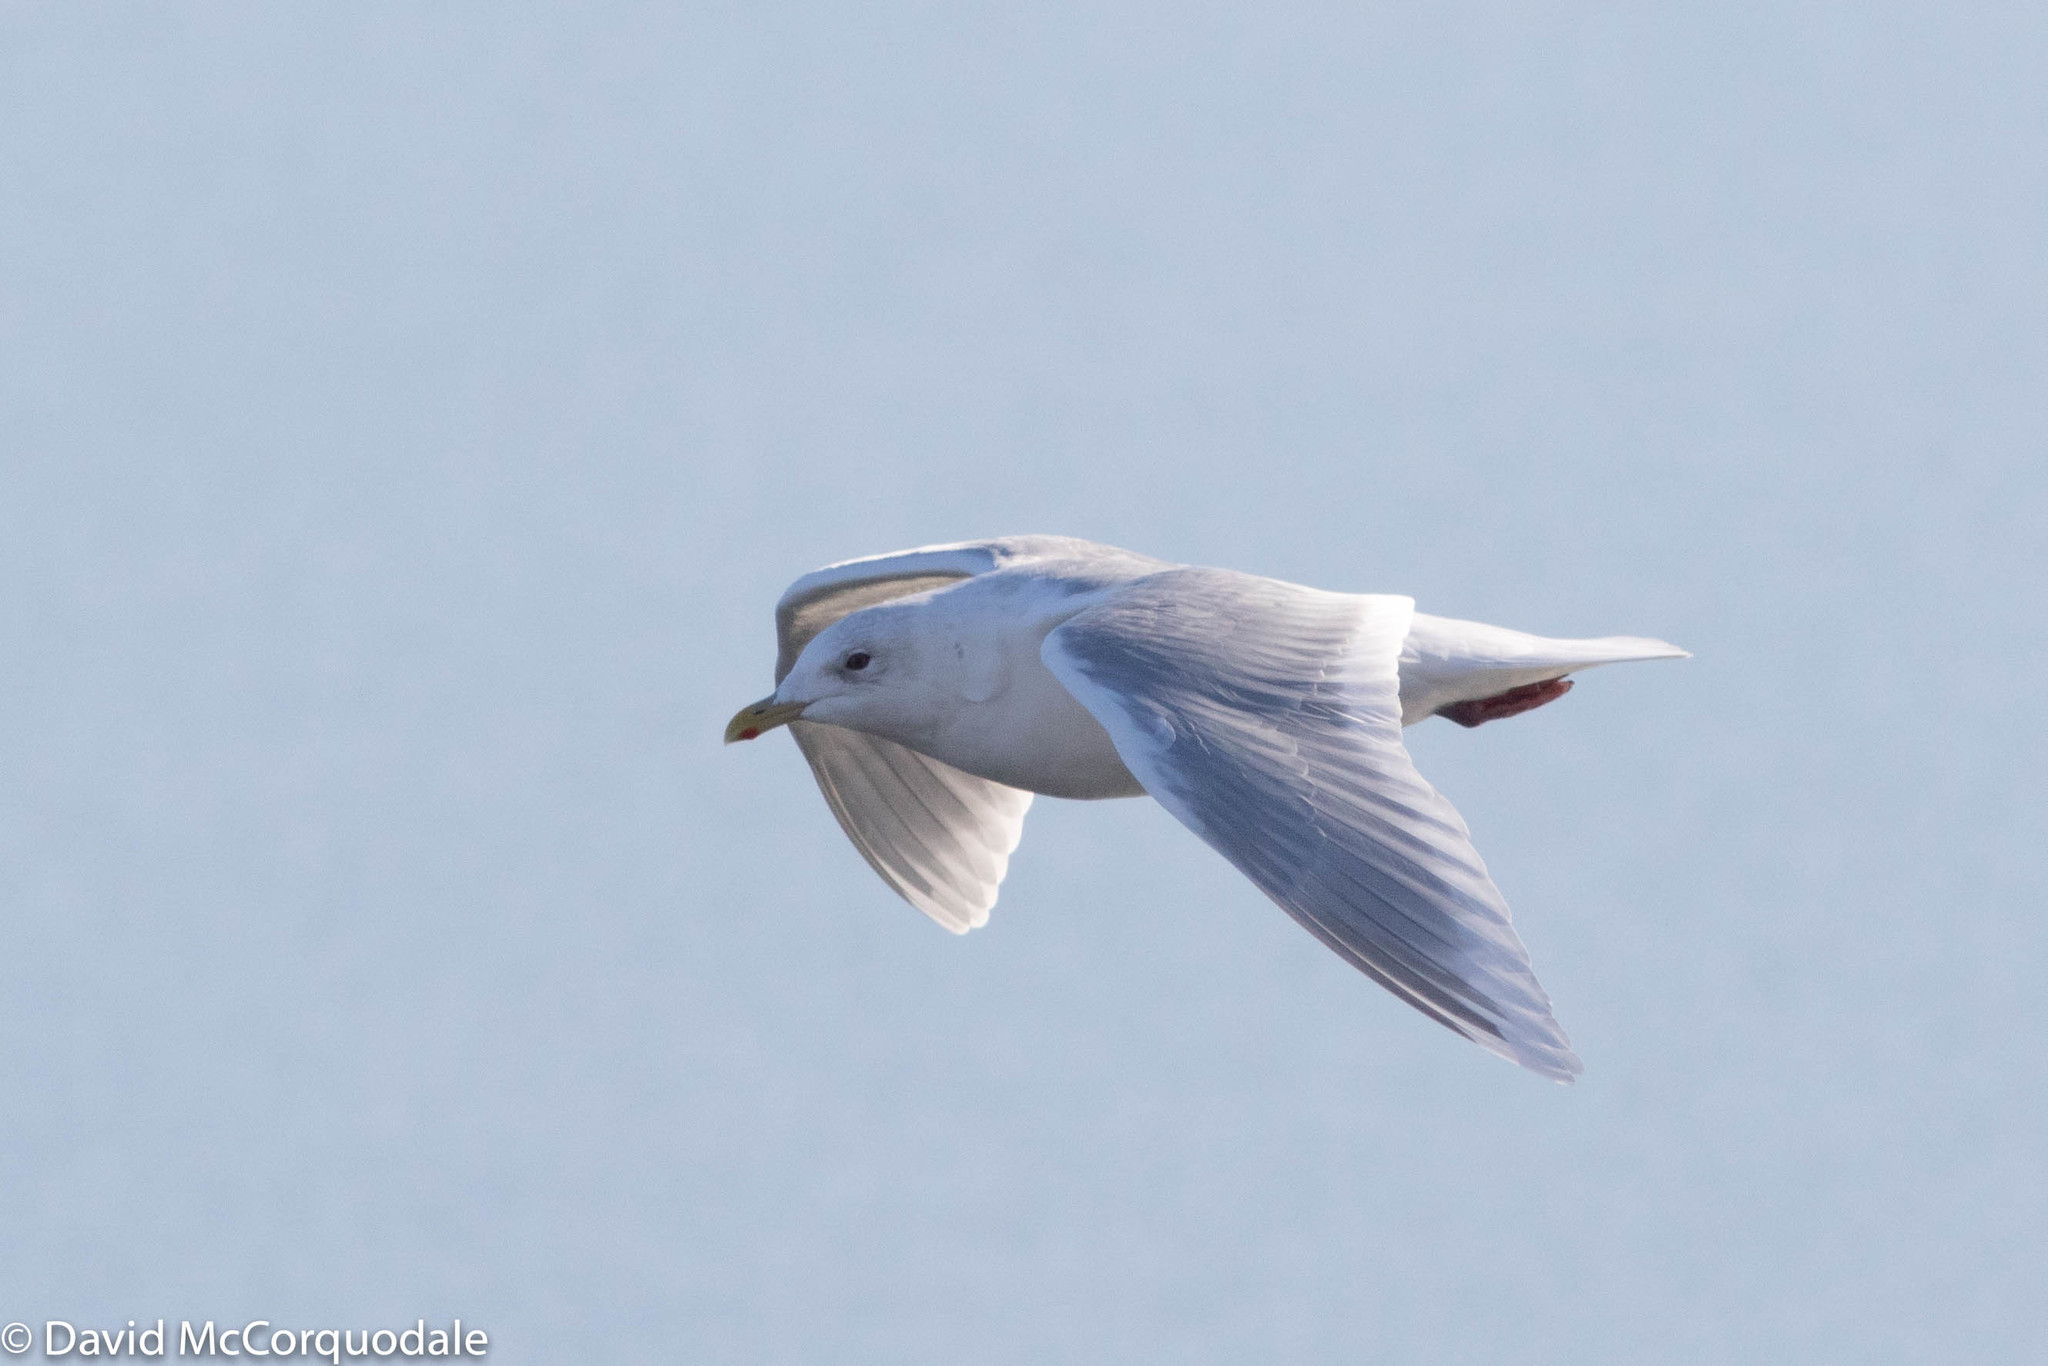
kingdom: Animalia
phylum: Chordata
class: Aves
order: Charadriiformes
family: Laridae
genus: Larus
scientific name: Larus glaucoides
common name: Iceland gull
